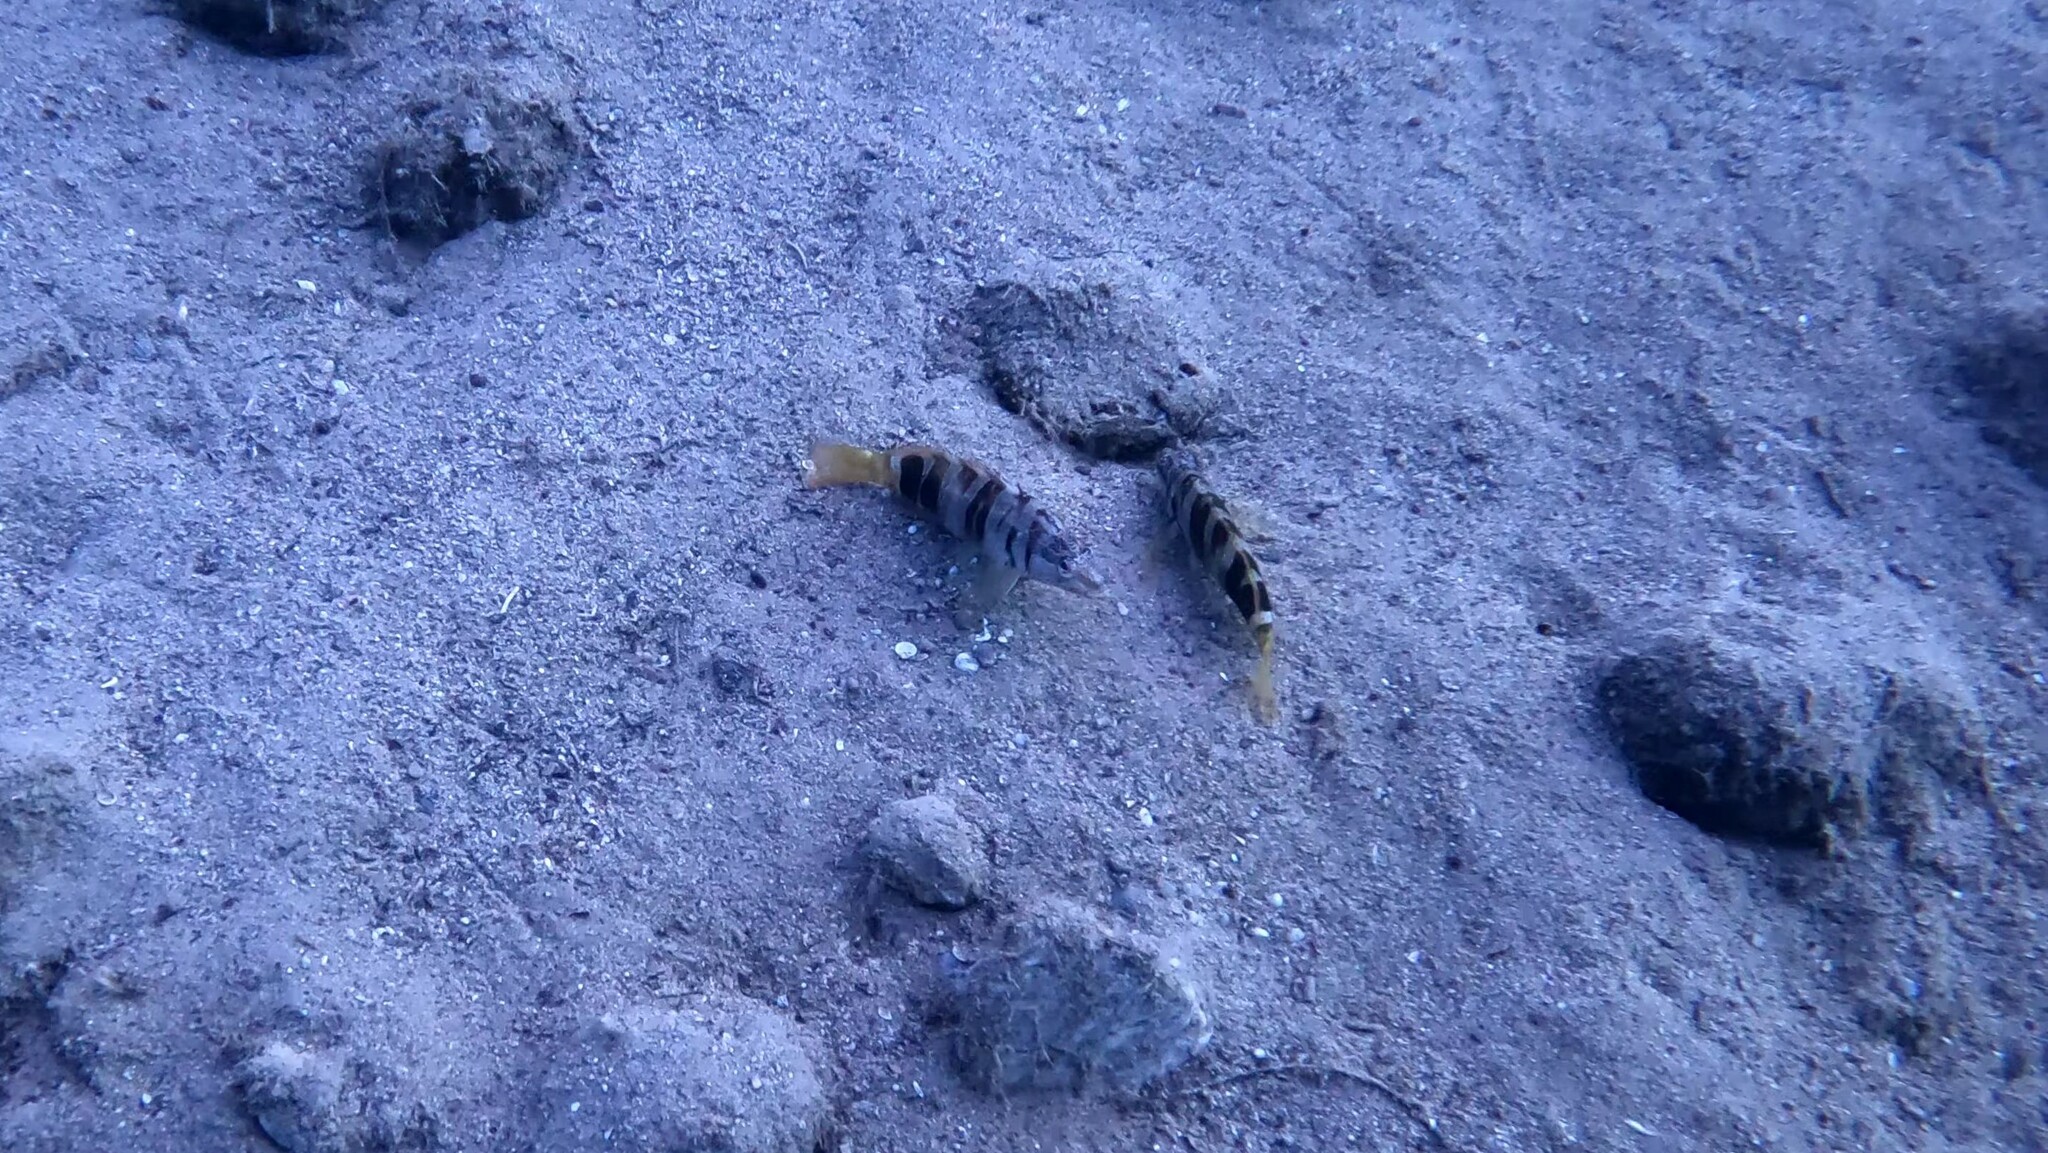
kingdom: Animalia
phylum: Chordata
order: Perciformes
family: Serranidae
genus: Serranus
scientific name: Serranus scriba
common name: Painted comber
